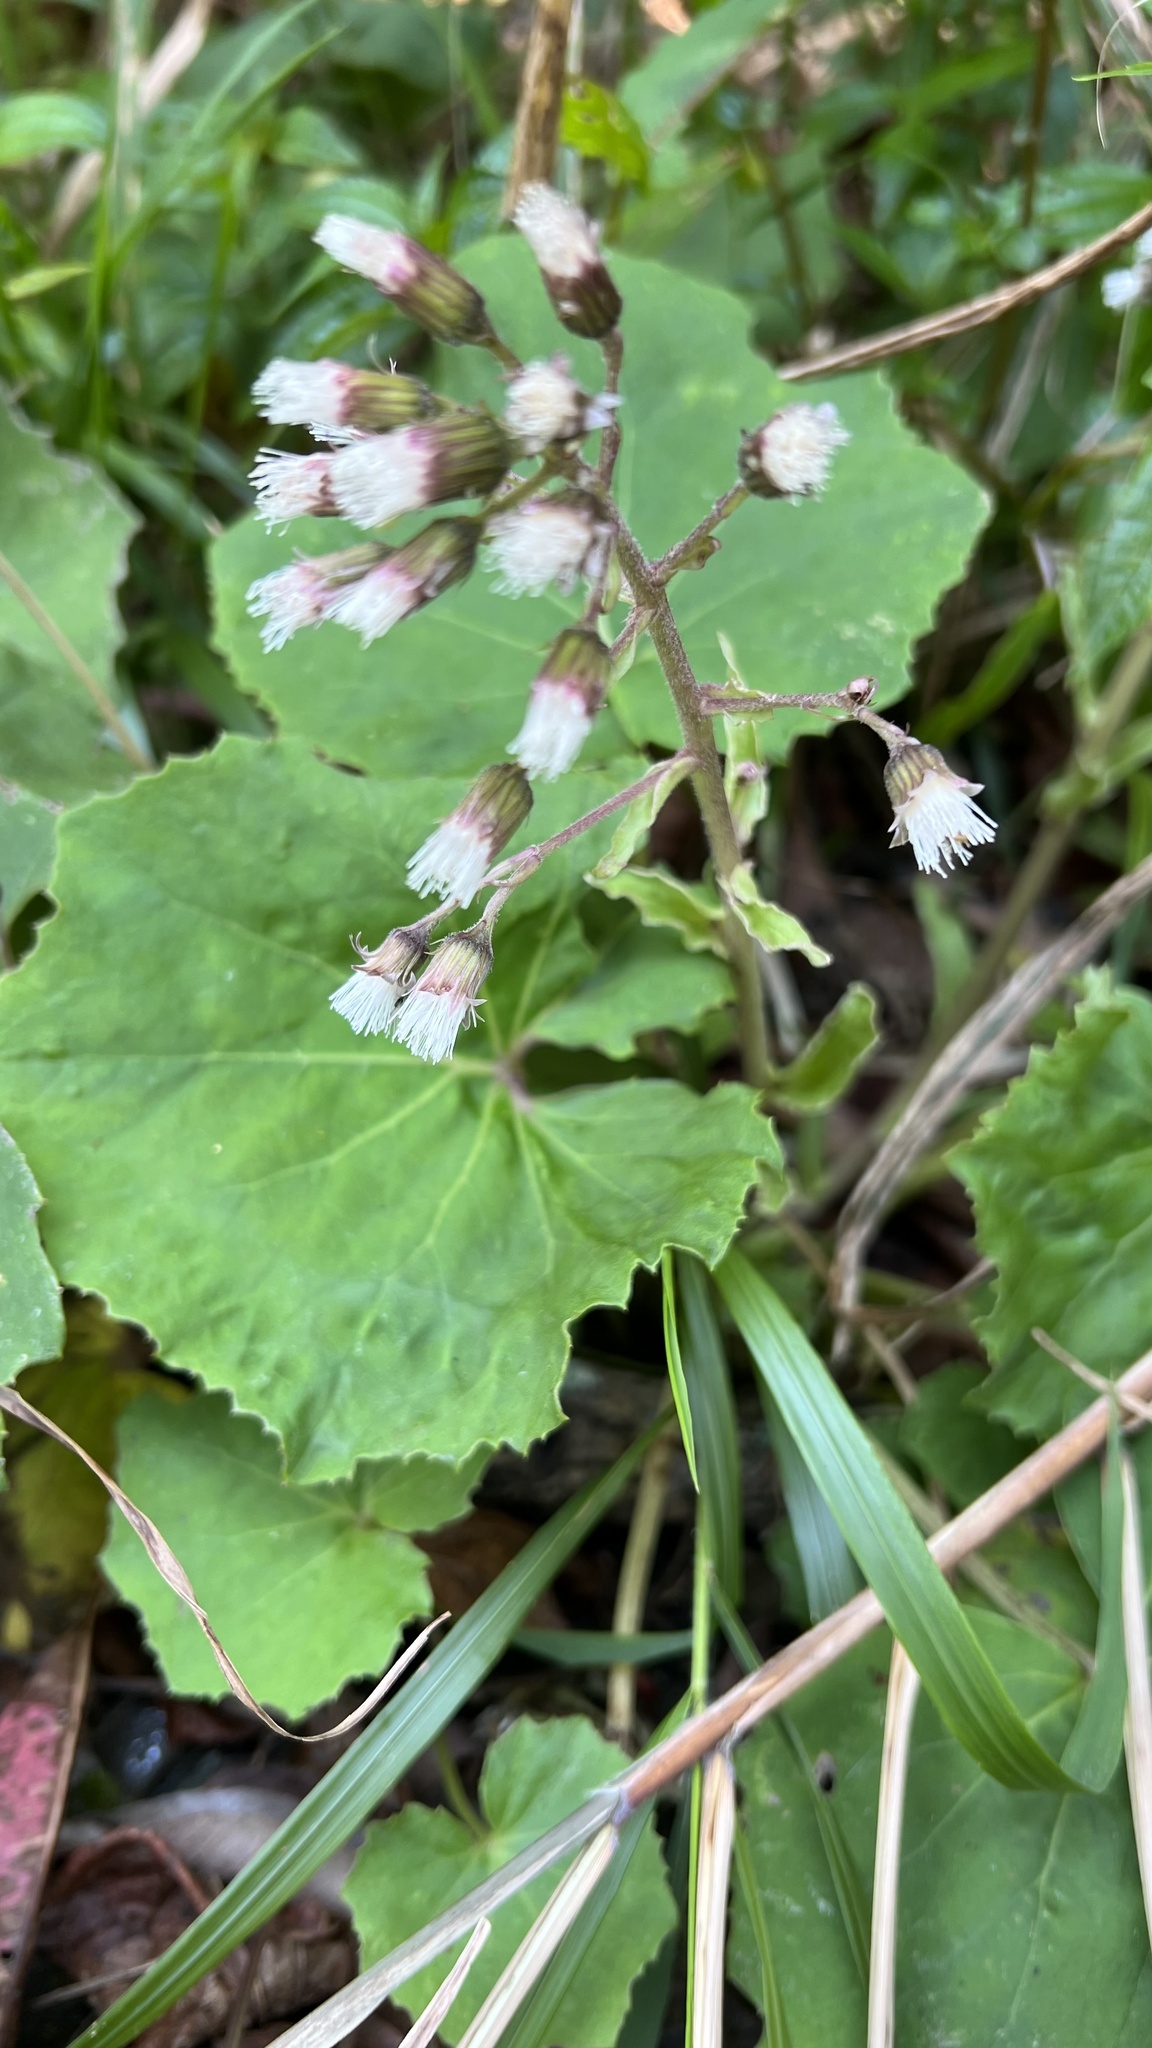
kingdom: Plantae
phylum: Tracheophyta
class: Magnoliopsida
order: Asterales
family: Asteraceae
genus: Petasites
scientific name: Petasites formosanus
